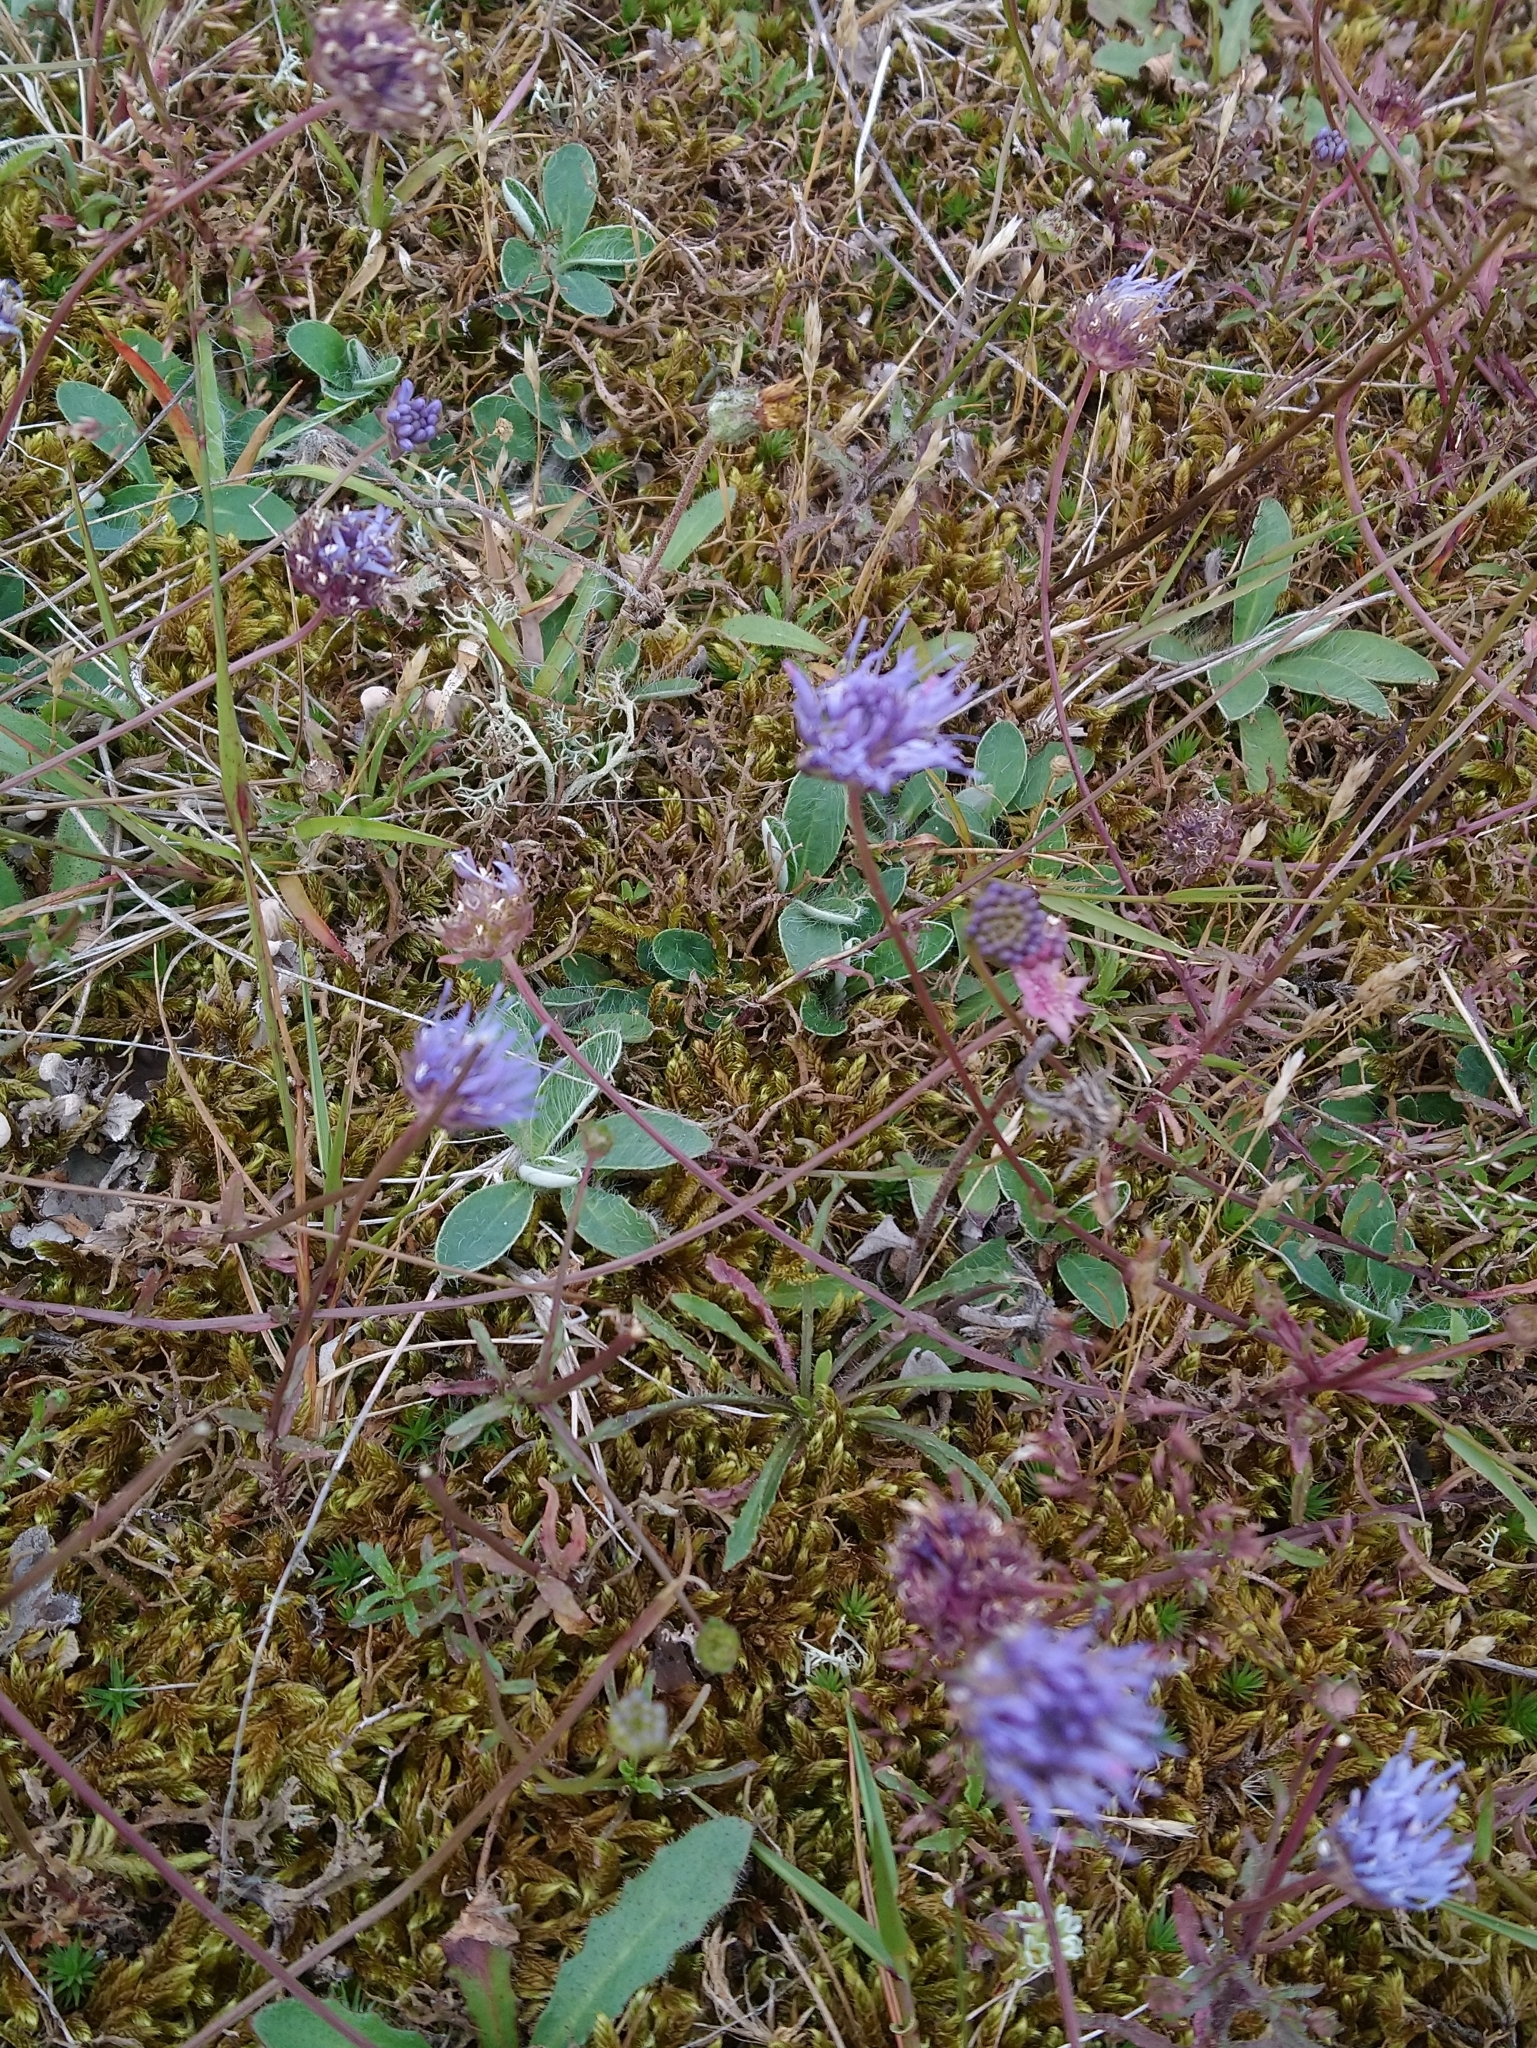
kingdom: Plantae
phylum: Tracheophyta
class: Magnoliopsida
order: Asterales
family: Campanulaceae
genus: Jasione
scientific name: Jasione montana
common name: Sheep's-bit
